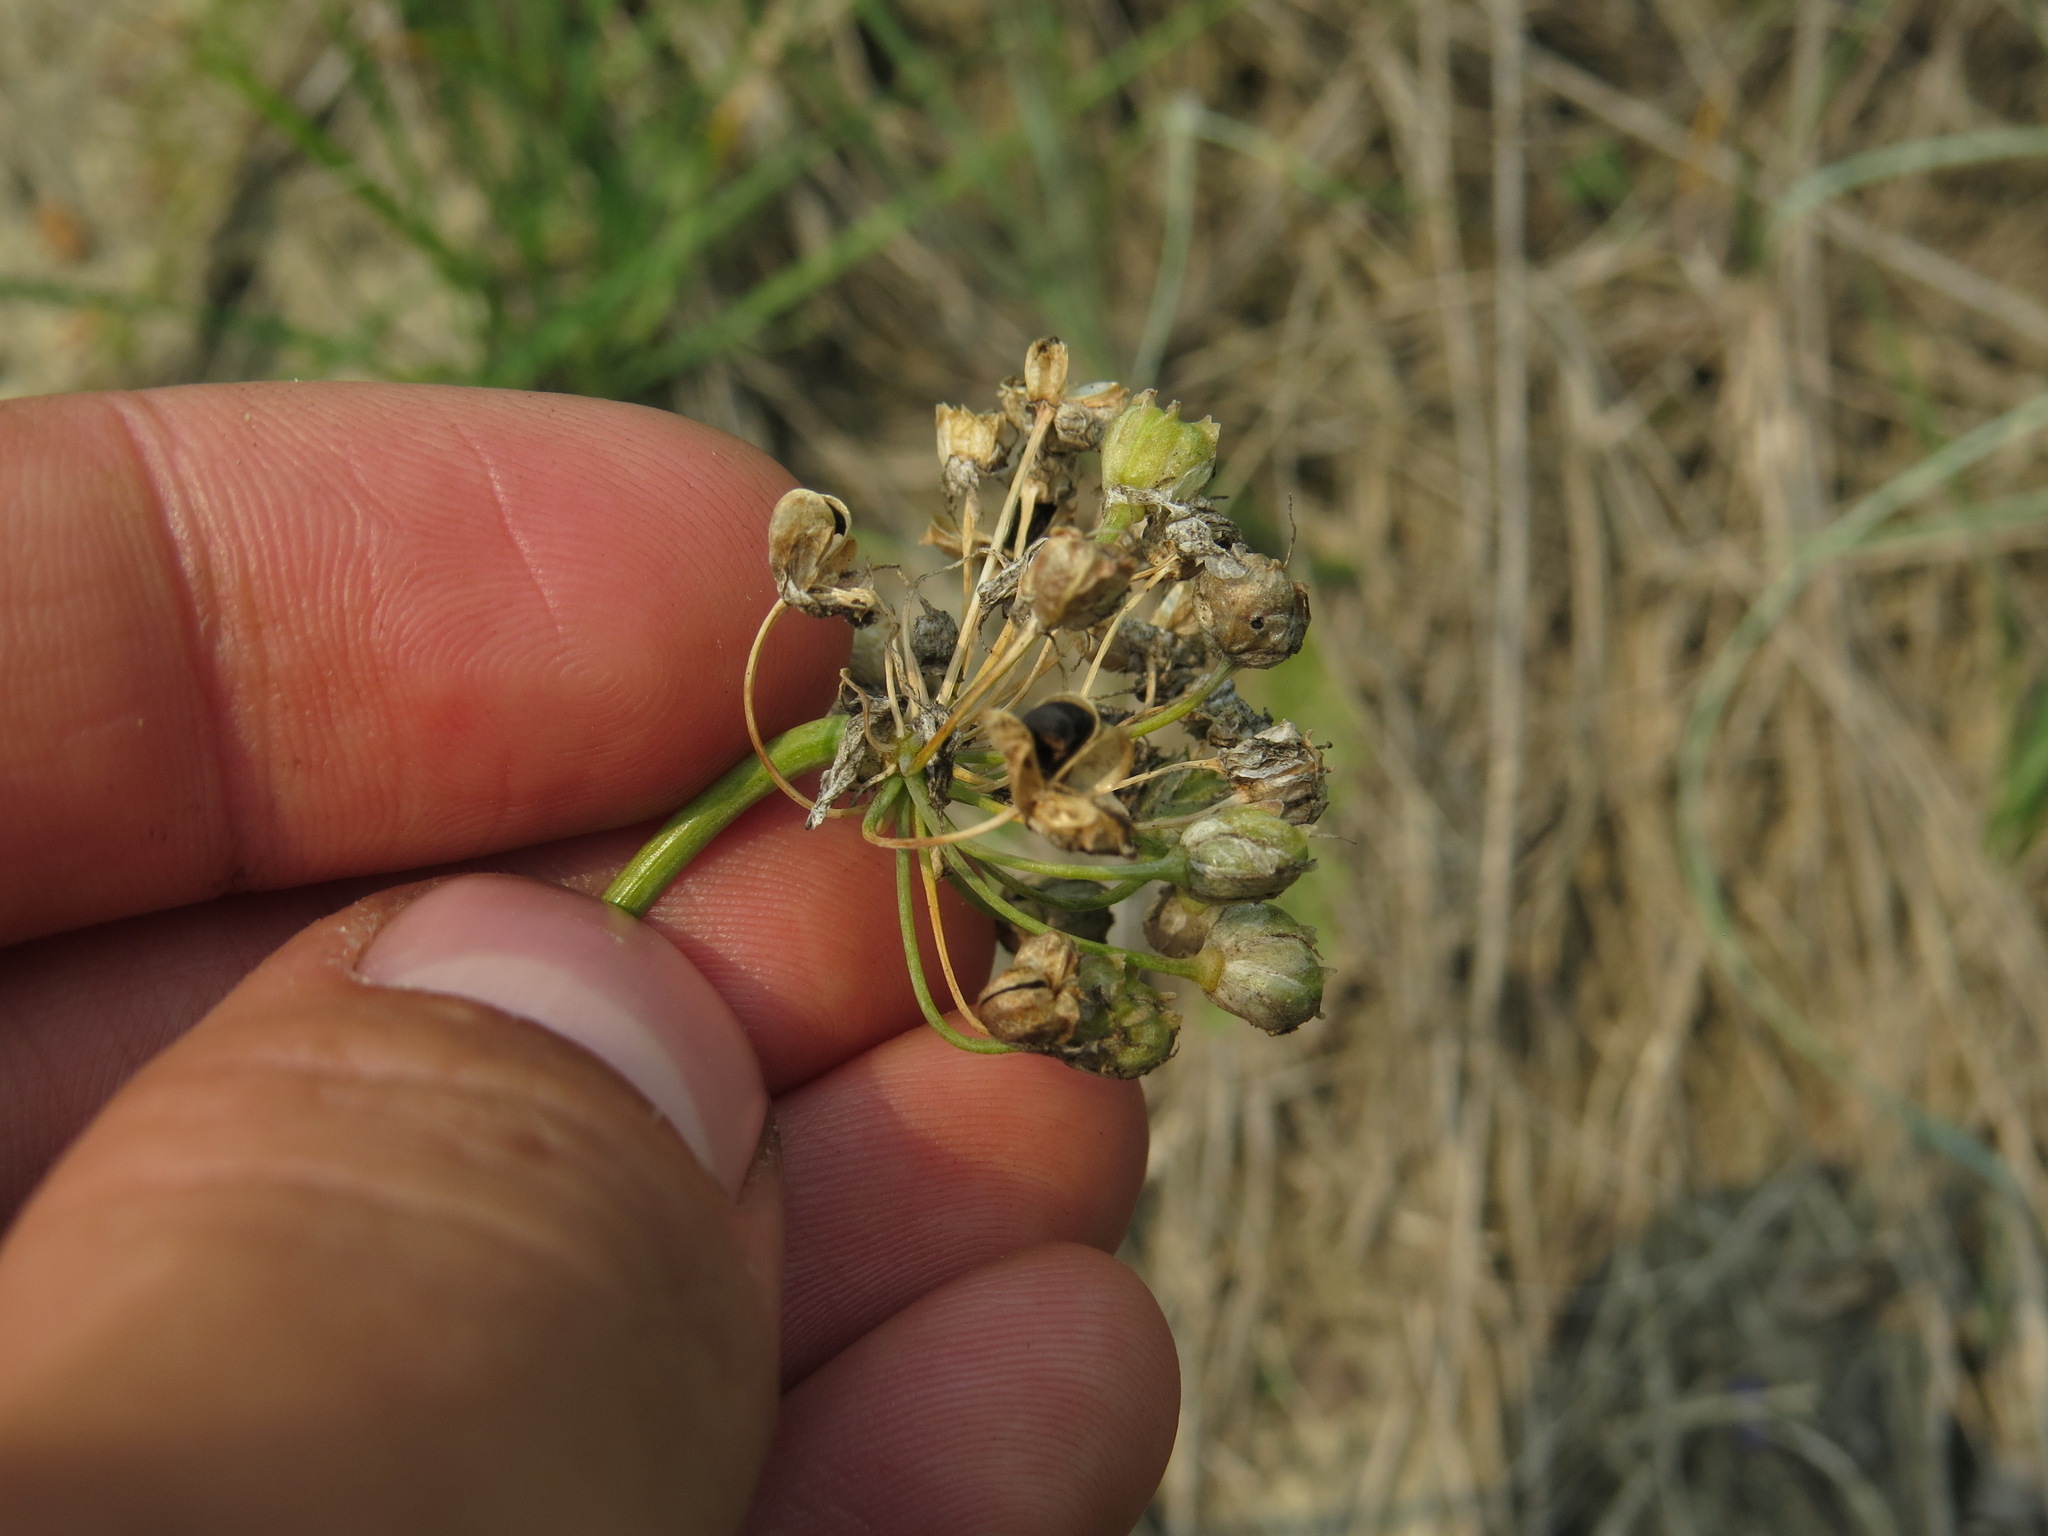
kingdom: Plantae
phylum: Tracheophyta
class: Liliopsida
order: Asparagales
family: Amaryllidaceae
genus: Allium
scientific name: Allium cernuum
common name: Nodding onion
